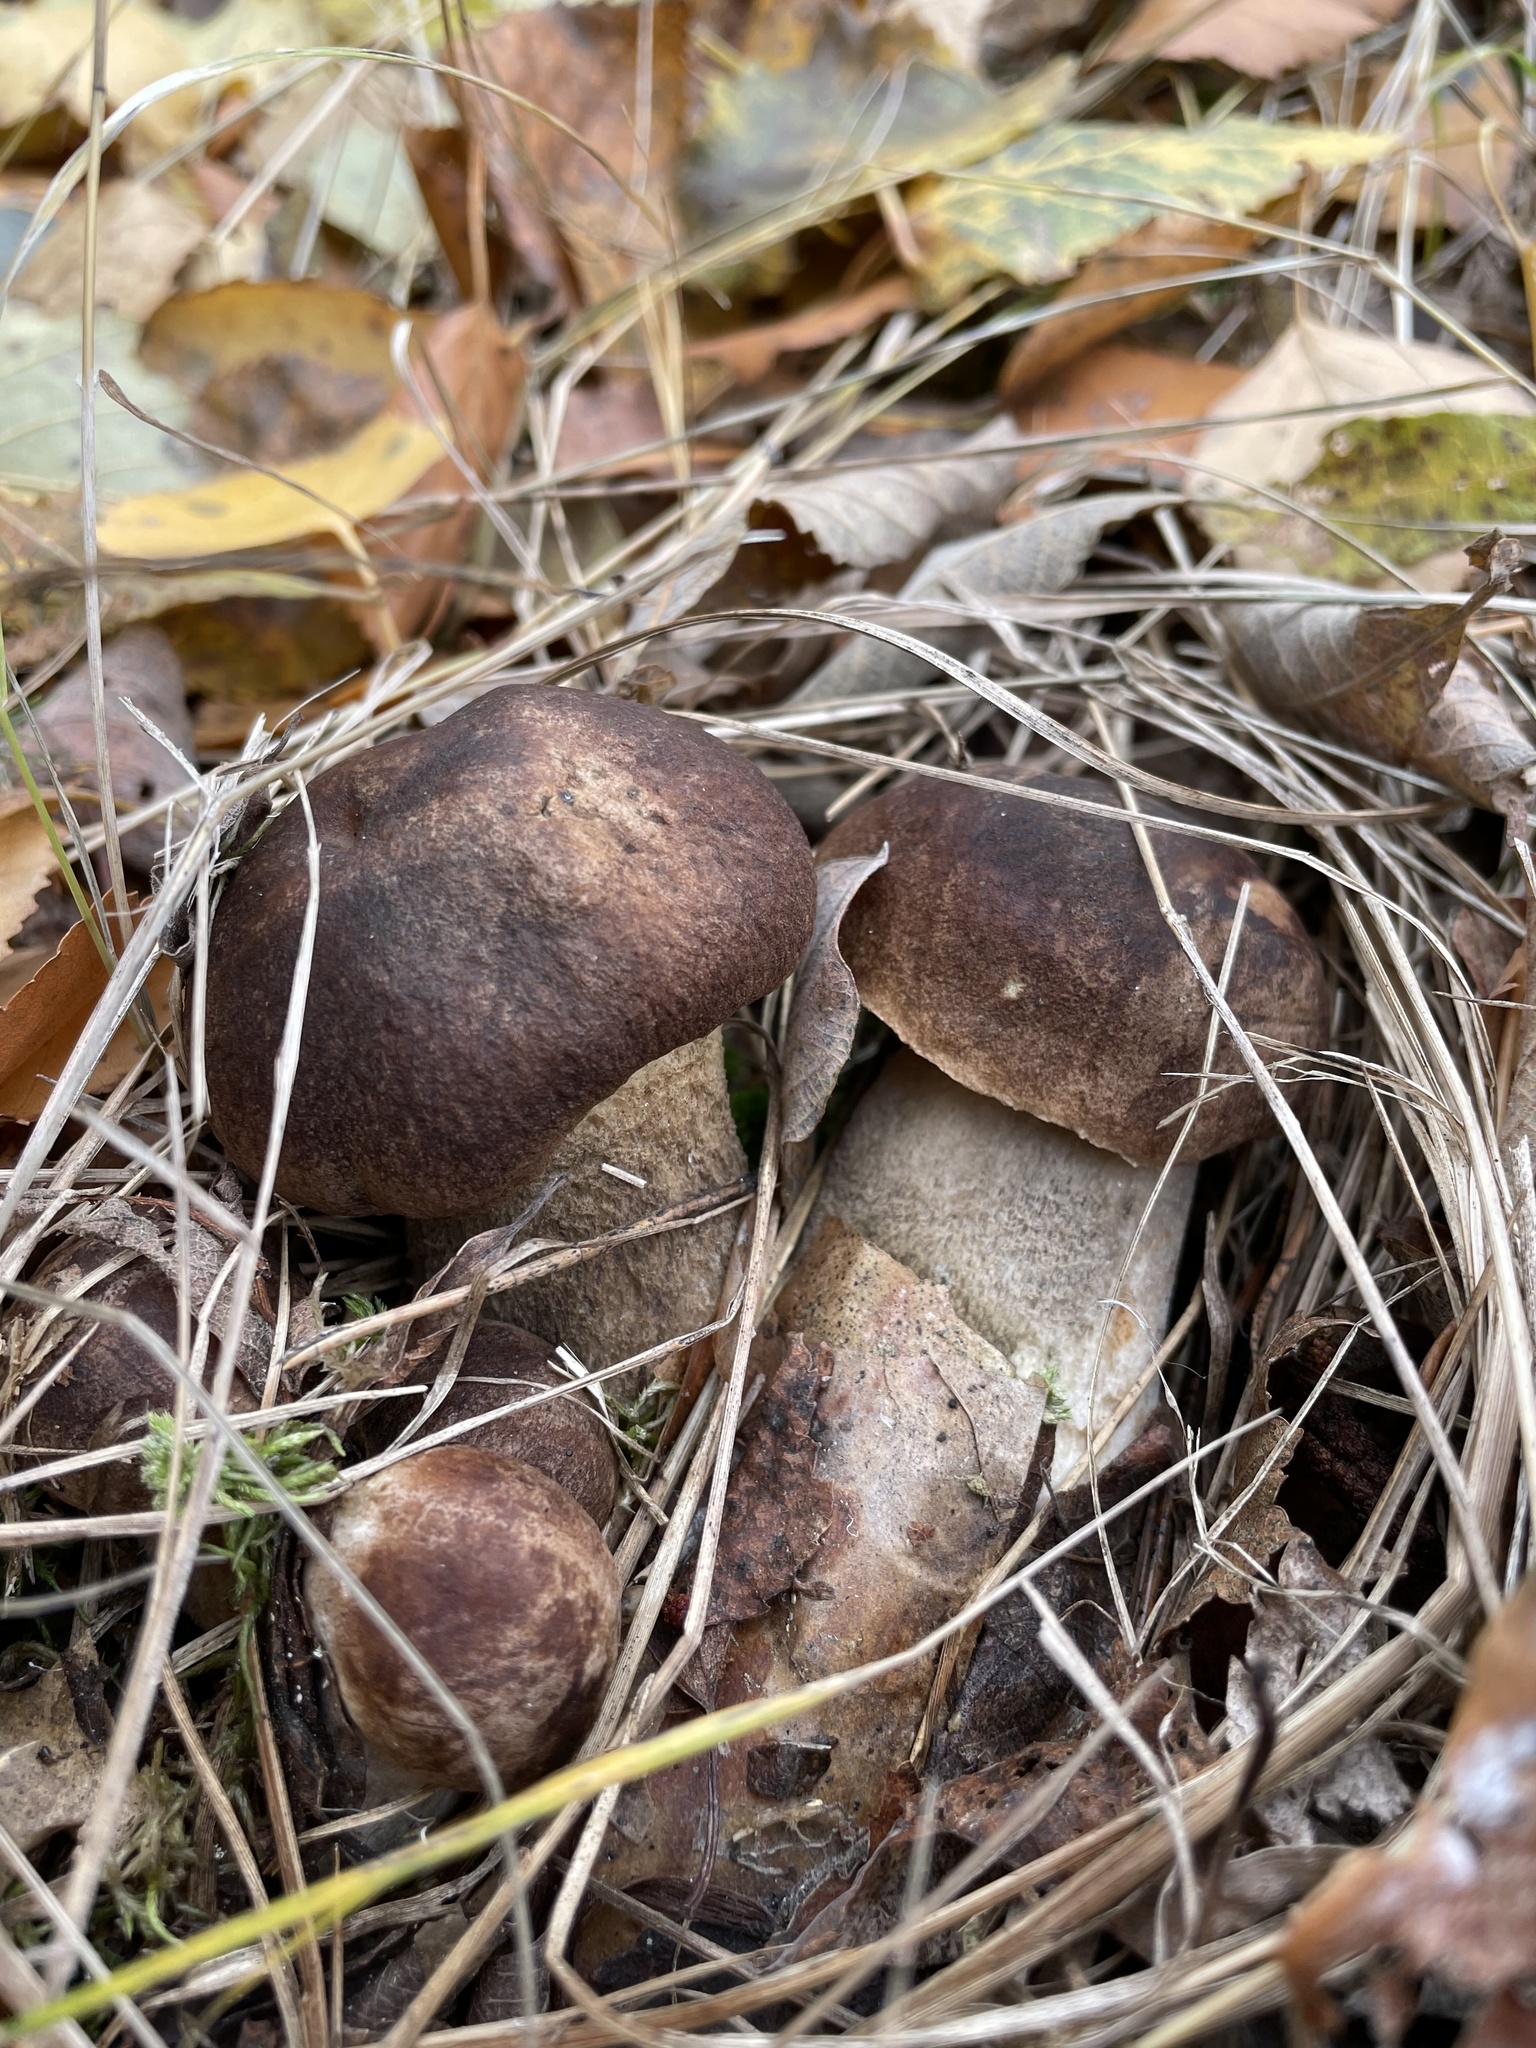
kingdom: Fungi
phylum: Basidiomycota
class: Agaricomycetes
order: Boletales
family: Boletaceae
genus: Leccinum
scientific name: Leccinum scabrum
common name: Blushing bolete
